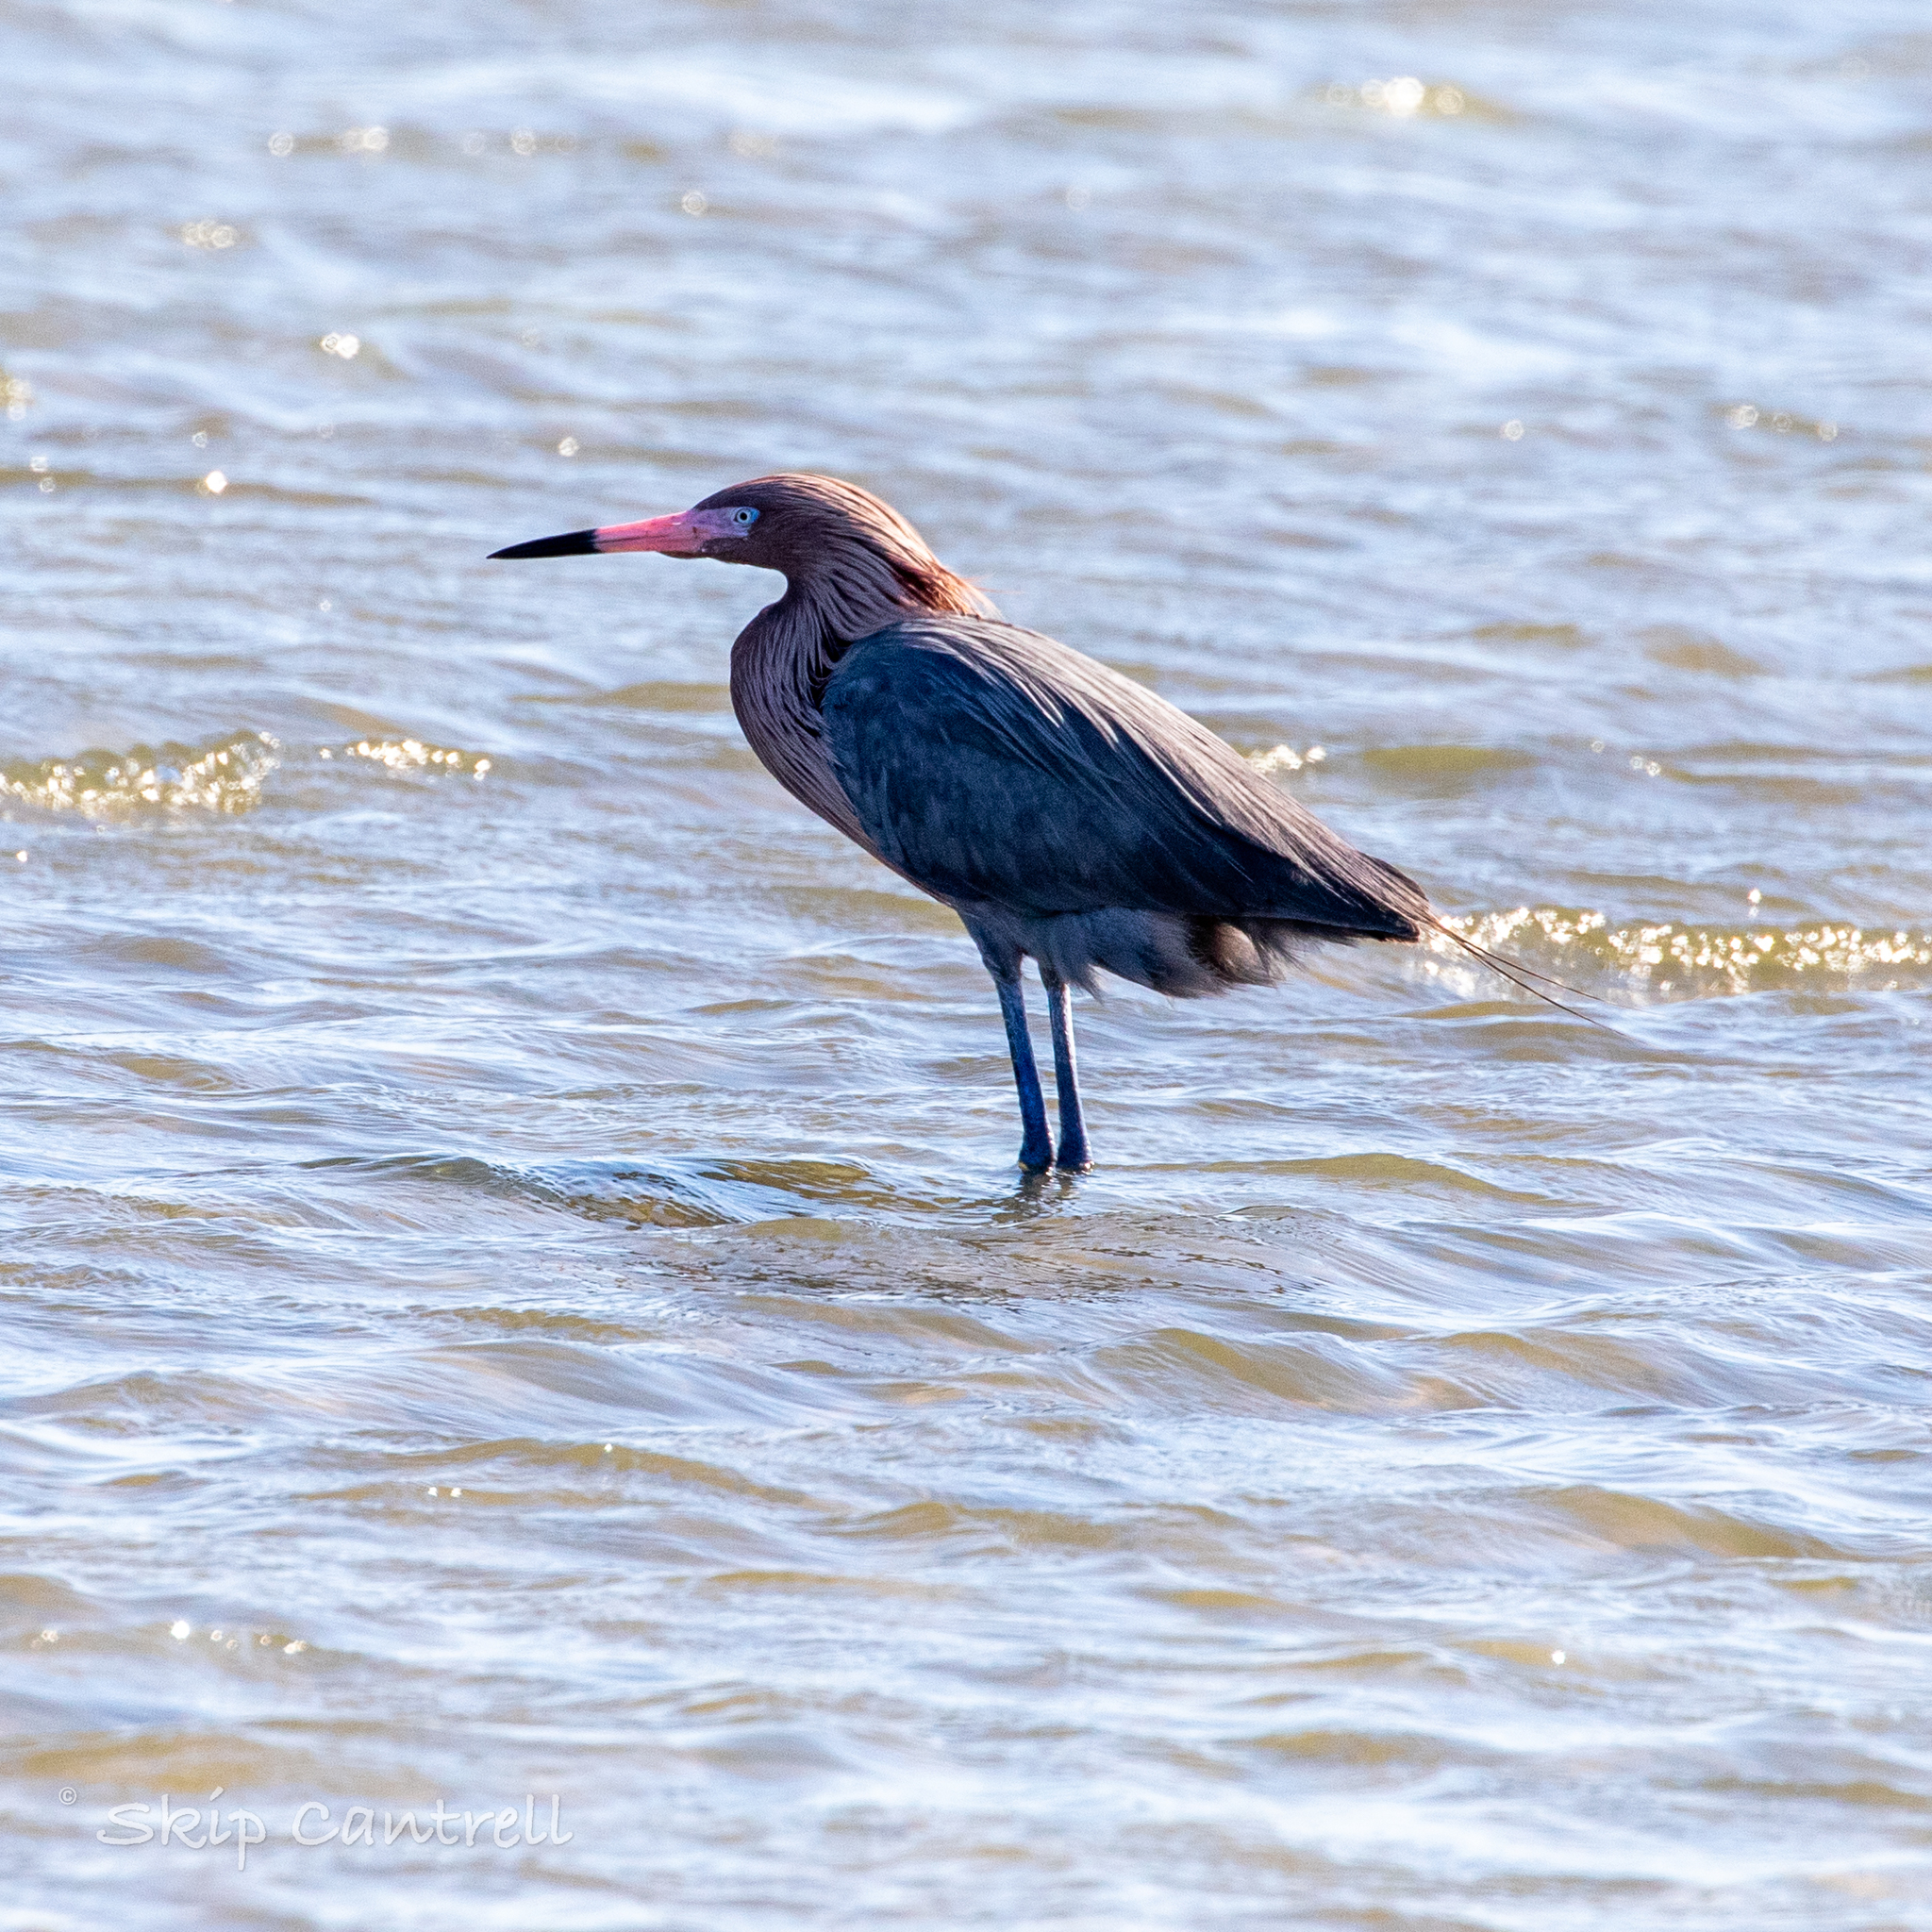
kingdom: Animalia
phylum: Chordata
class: Aves
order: Pelecaniformes
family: Ardeidae
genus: Egretta
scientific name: Egretta rufescens
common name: Reddish egret
